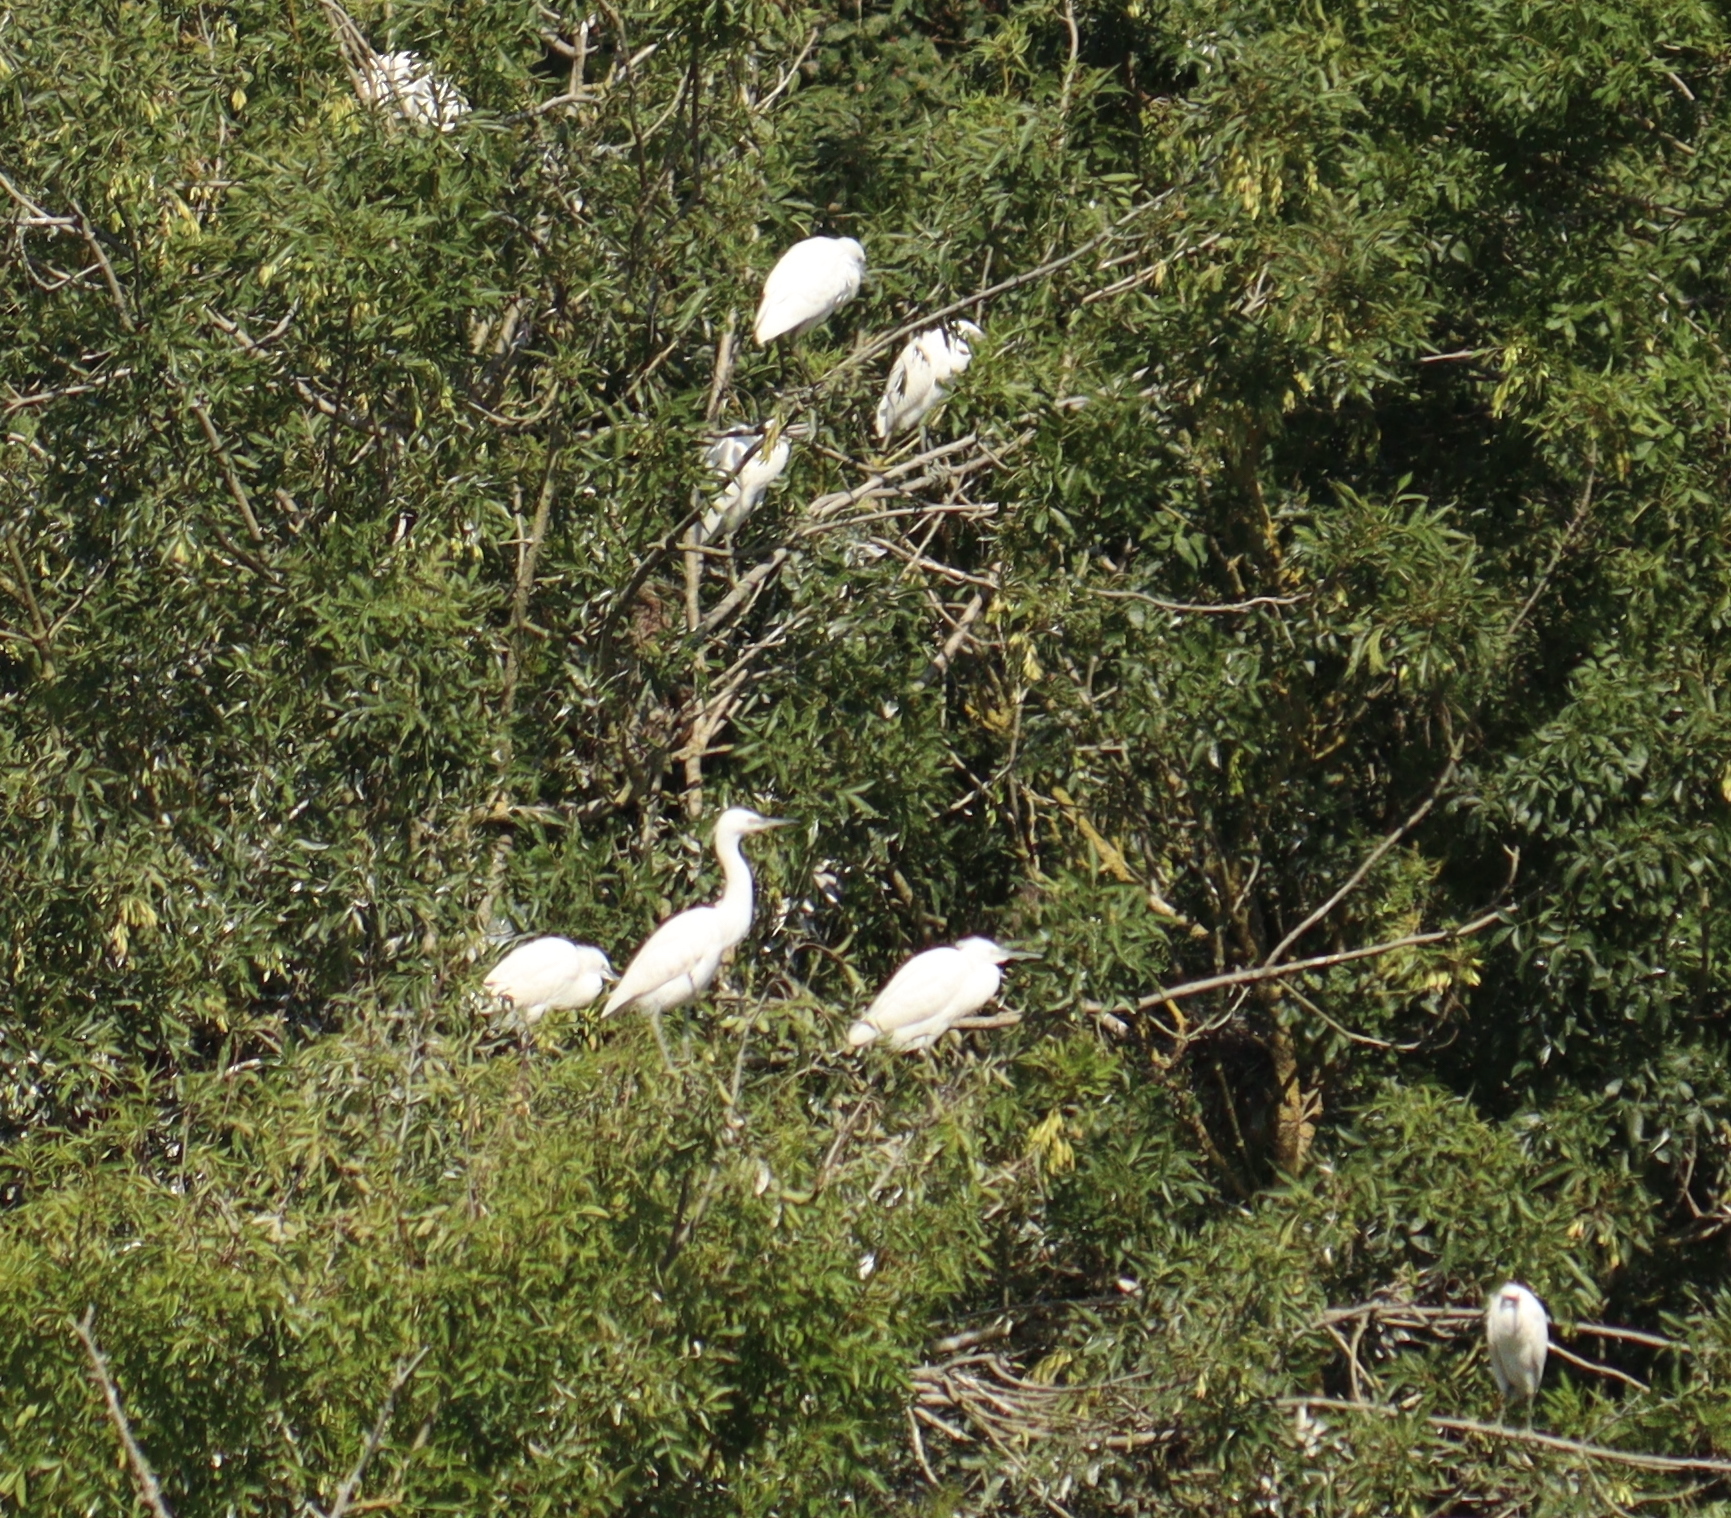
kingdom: Animalia
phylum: Chordata
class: Aves
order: Pelecaniformes
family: Ardeidae
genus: Egretta
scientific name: Egretta garzetta
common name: Little egret
